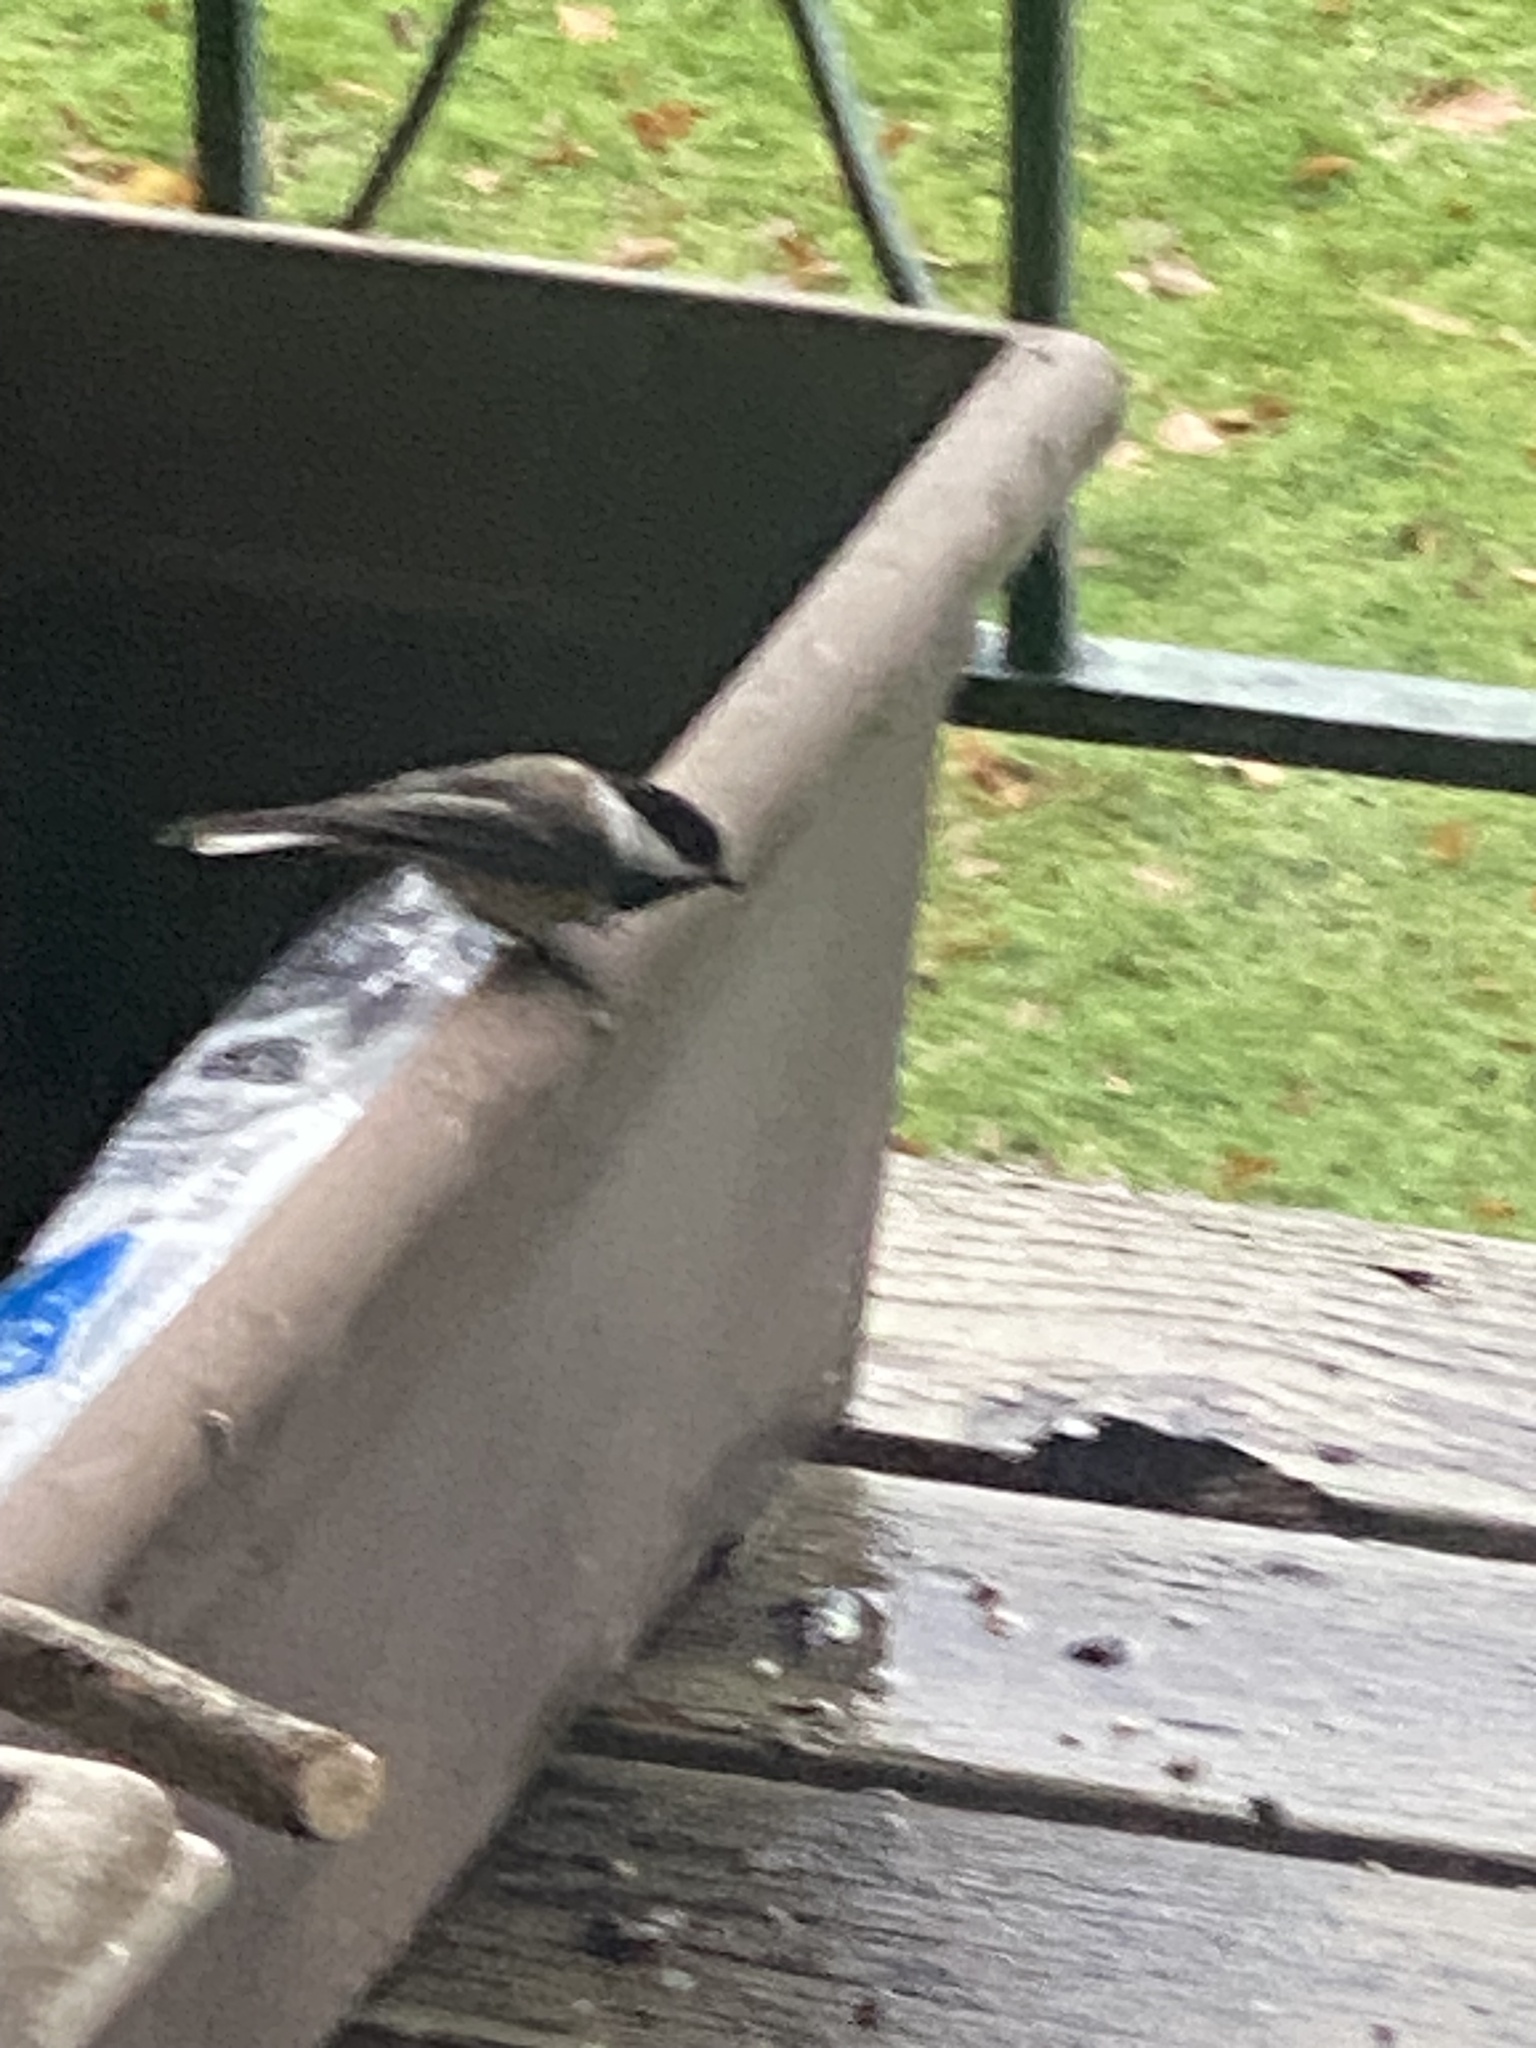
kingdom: Animalia
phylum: Chordata
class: Aves
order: Passeriformes
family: Paridae
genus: Poecile
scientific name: Poecile atricapillus
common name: Black-capped chickadee
